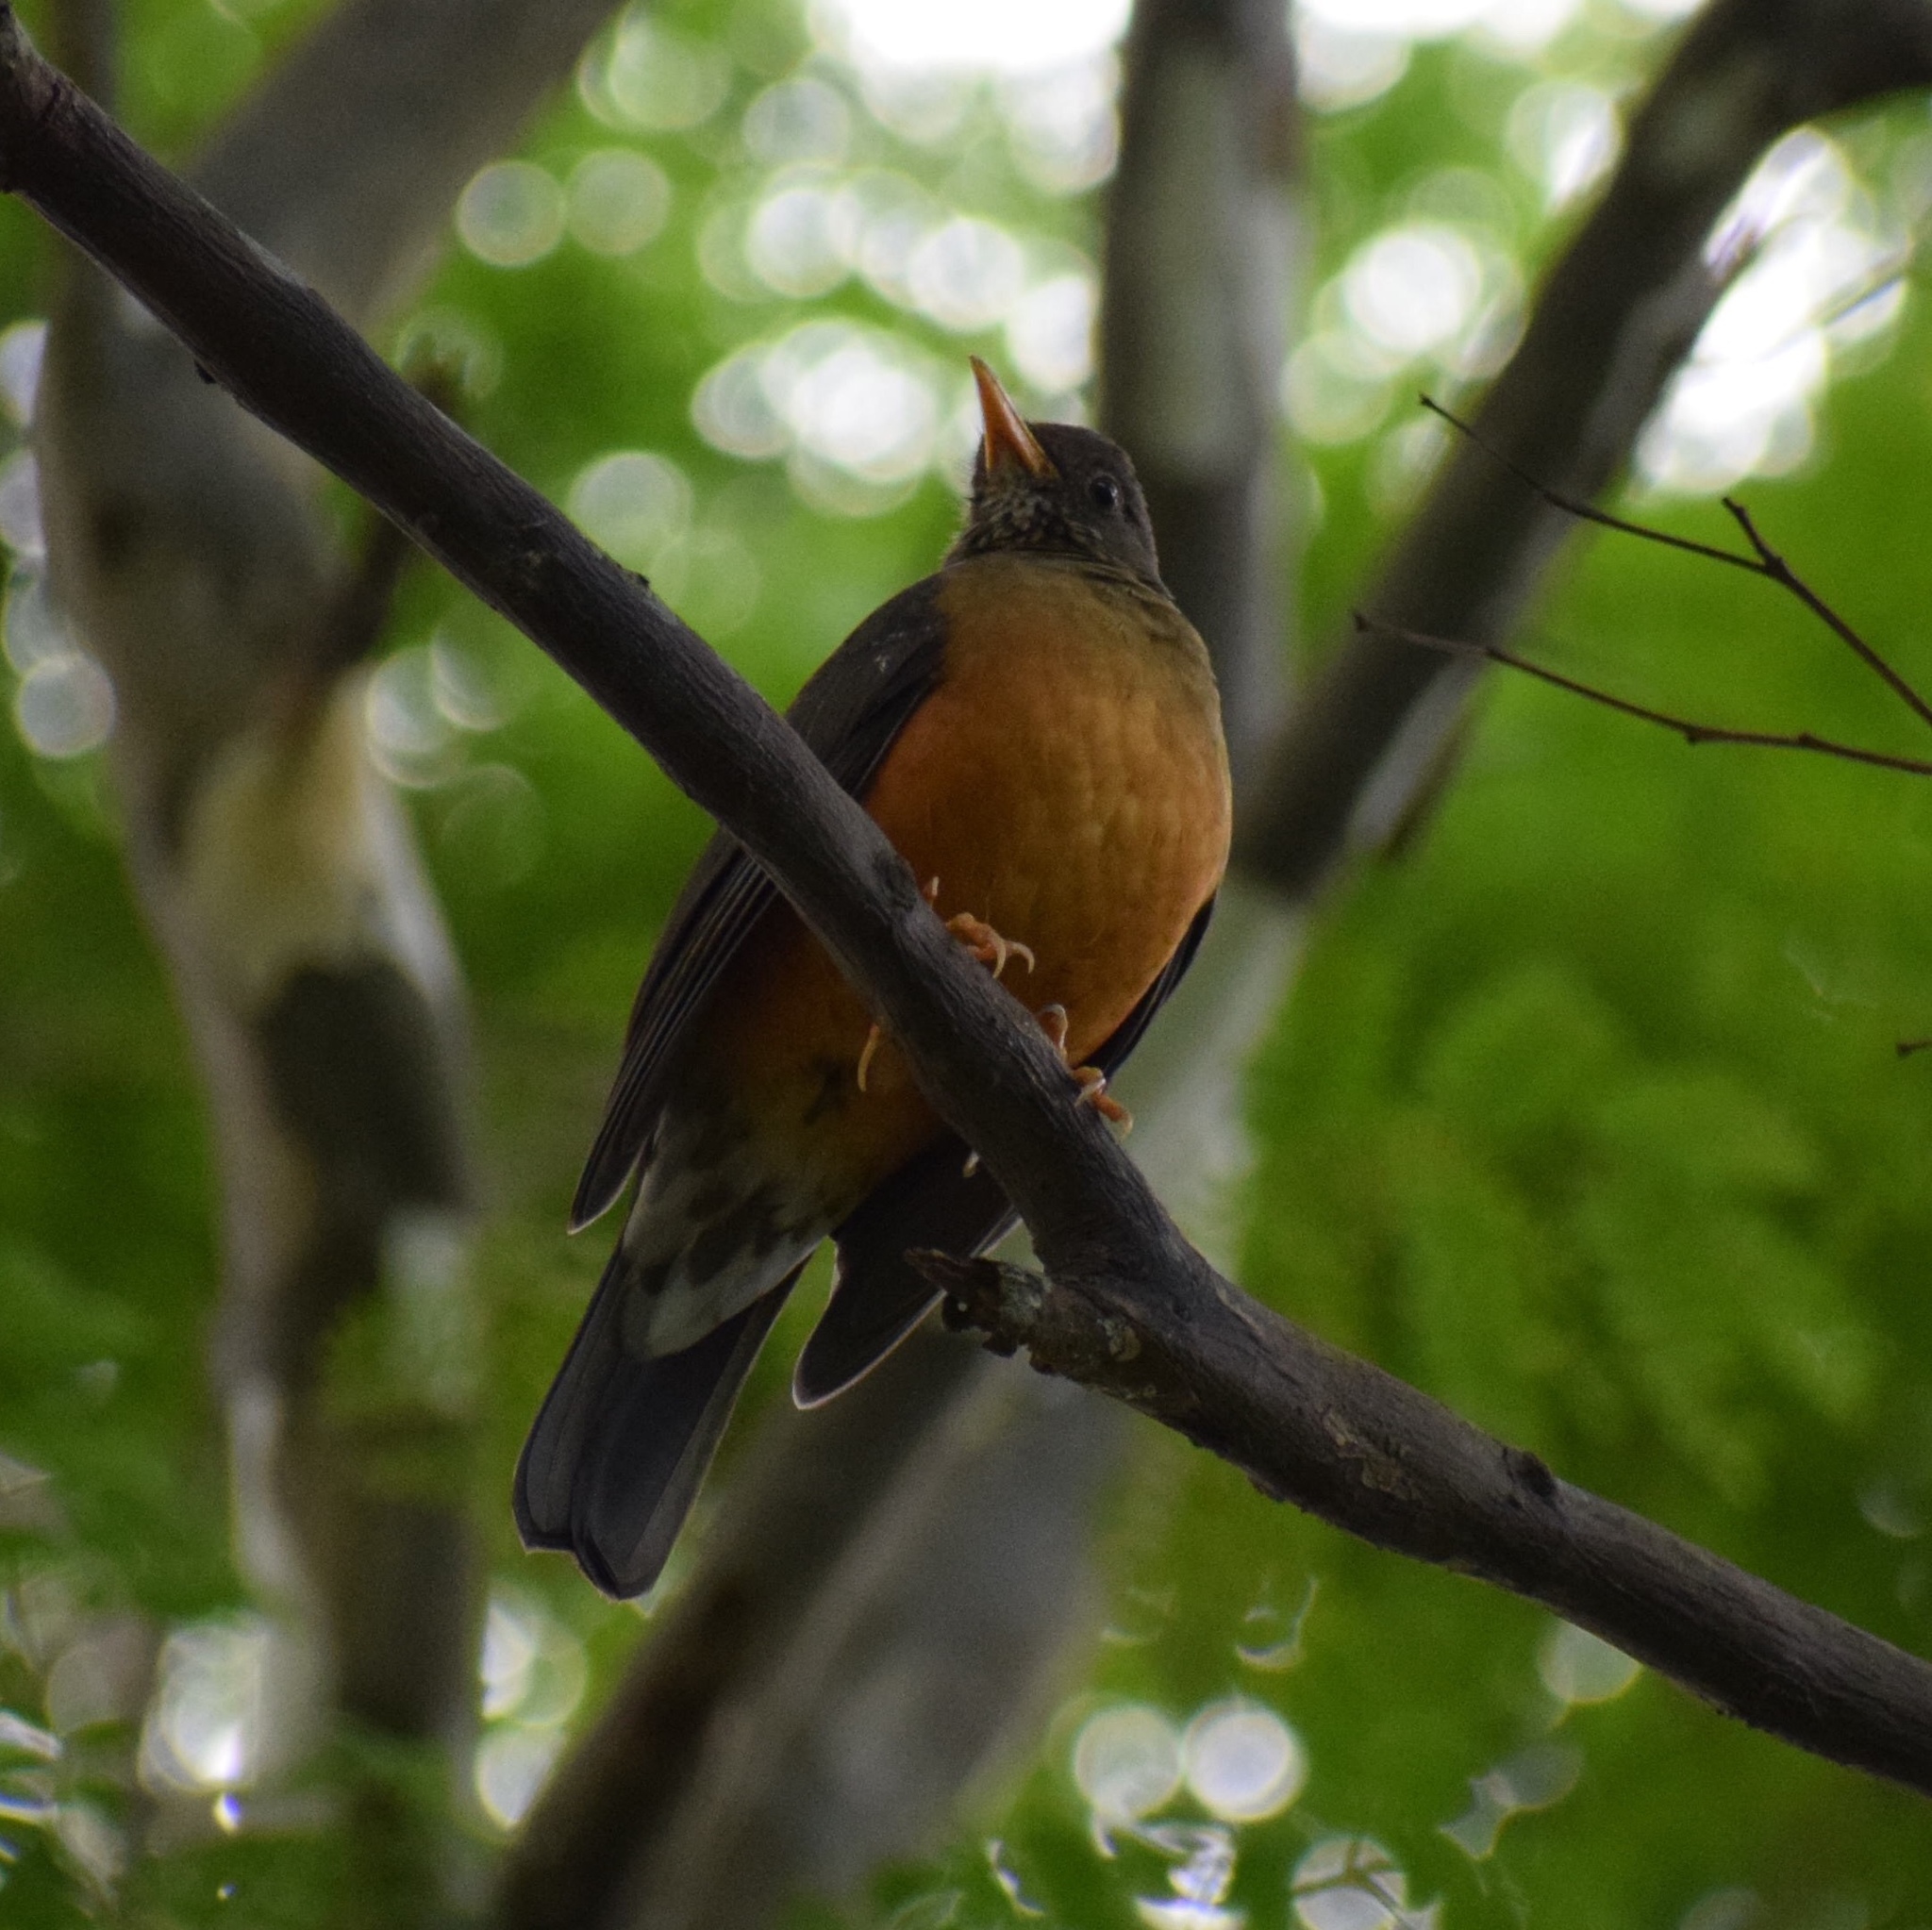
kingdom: Animalia
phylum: Chordata
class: Aves
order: Passeriformes
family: Turdidae
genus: Turdus
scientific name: Turdus olivaceus
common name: Olive thrush
